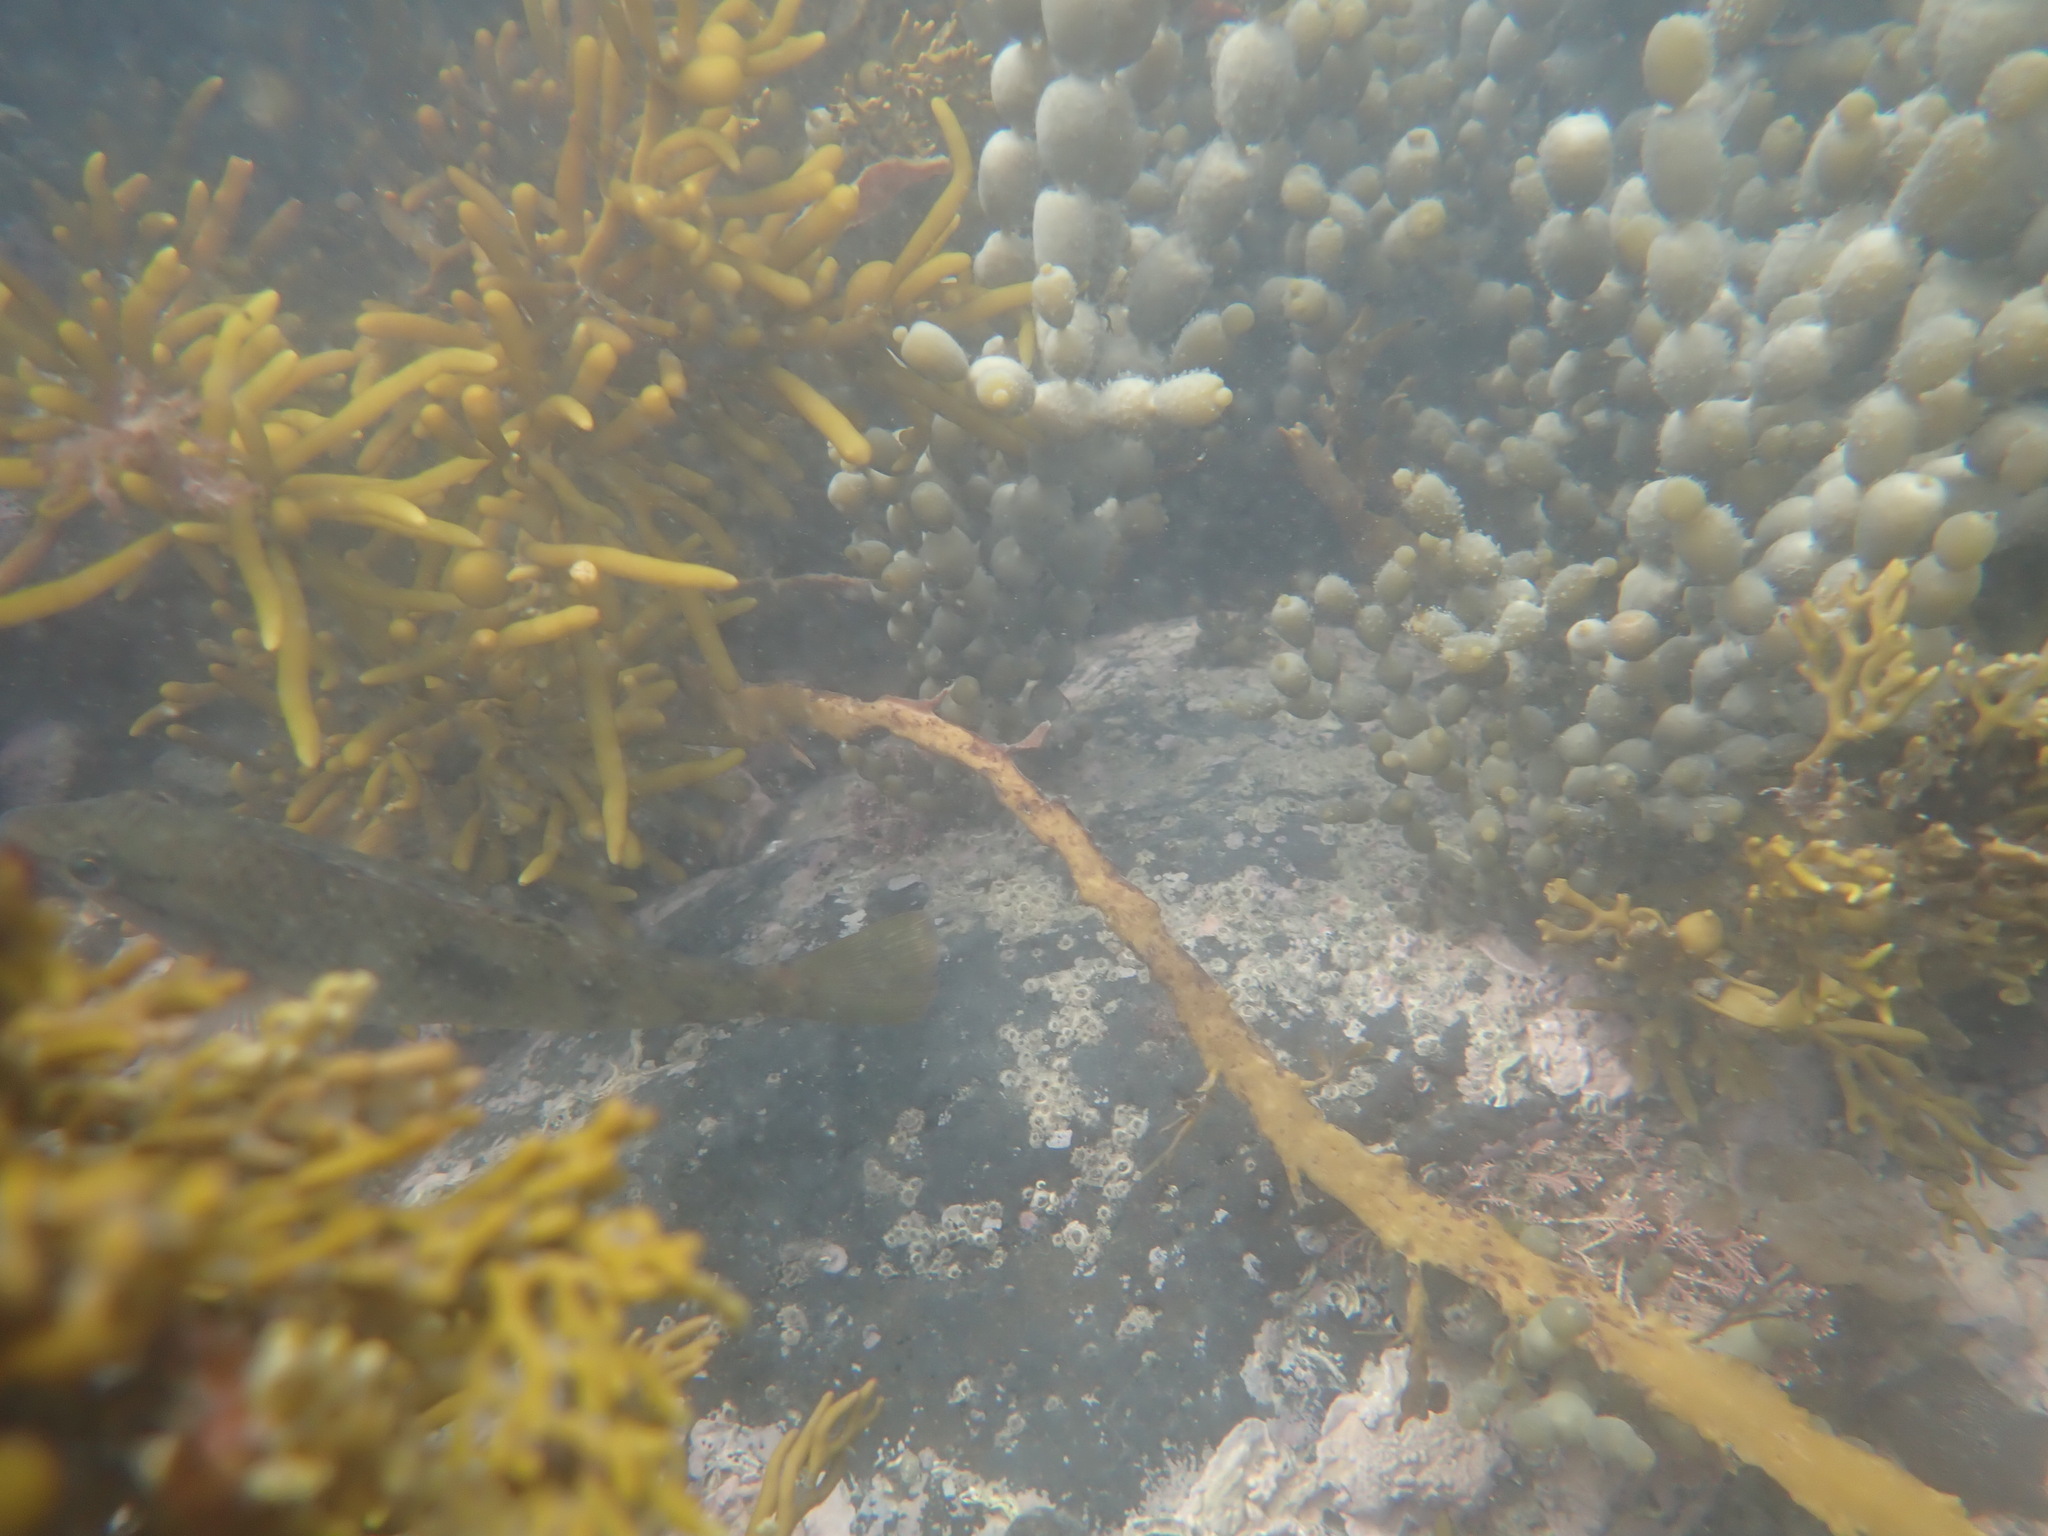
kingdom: Animalia
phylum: Chordata
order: Perciformes
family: Labridae
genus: Notolabrus
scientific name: Notolabrus celidotus
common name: Spotty
